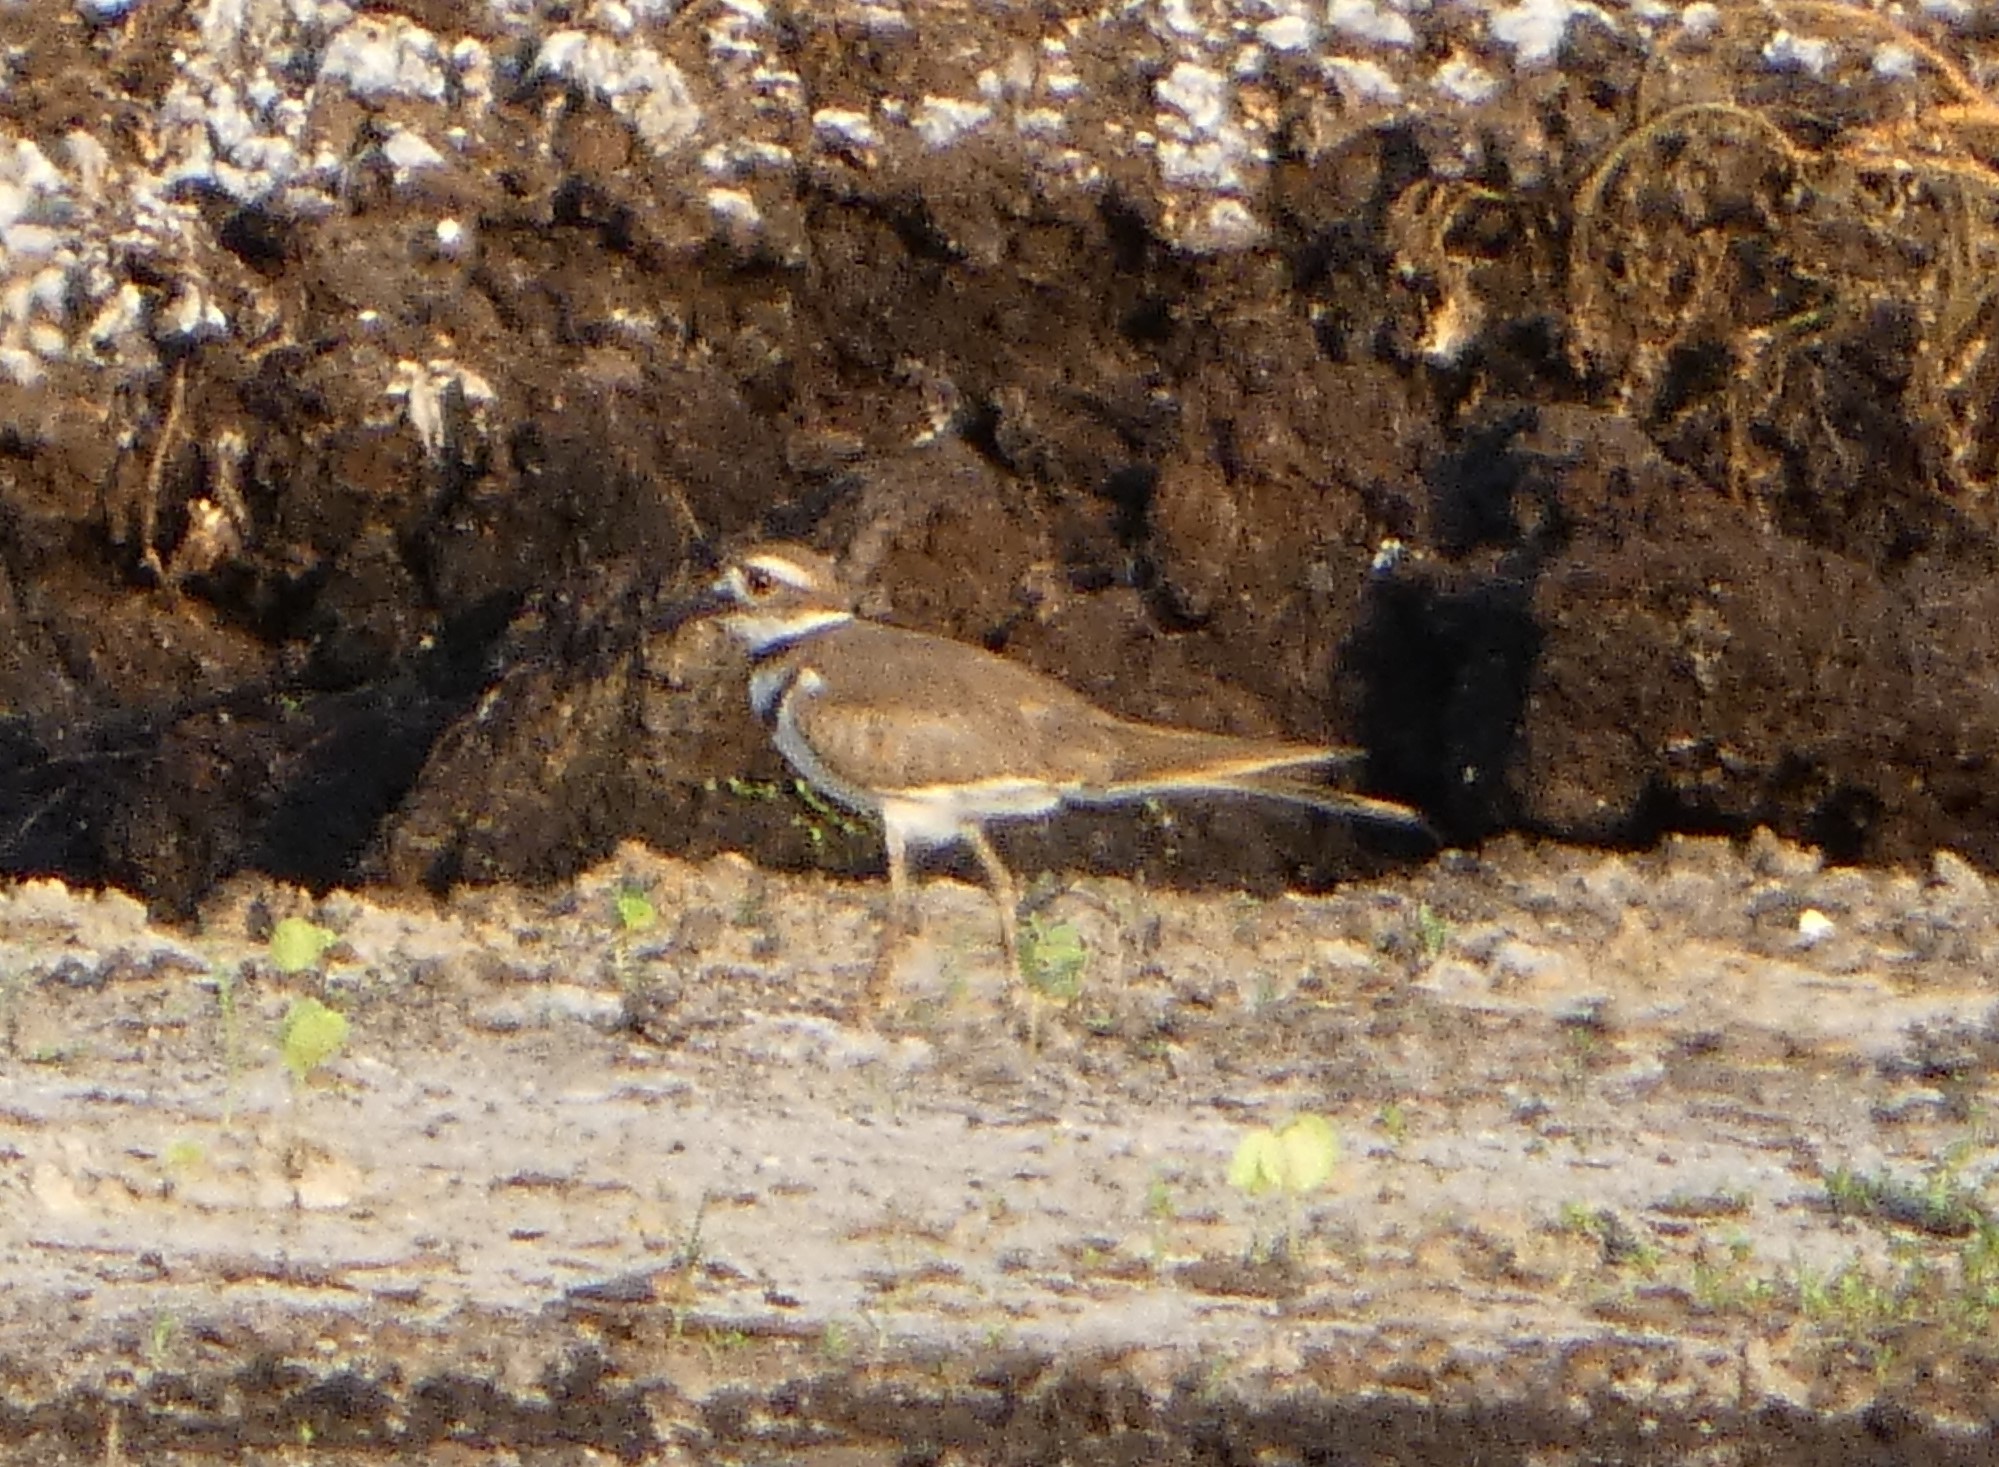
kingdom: Animalia
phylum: Chordata
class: Aves
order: Charadriiformes
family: Charadriidae
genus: Charadrius
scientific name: Charadrius vociferus
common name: Killdeer
